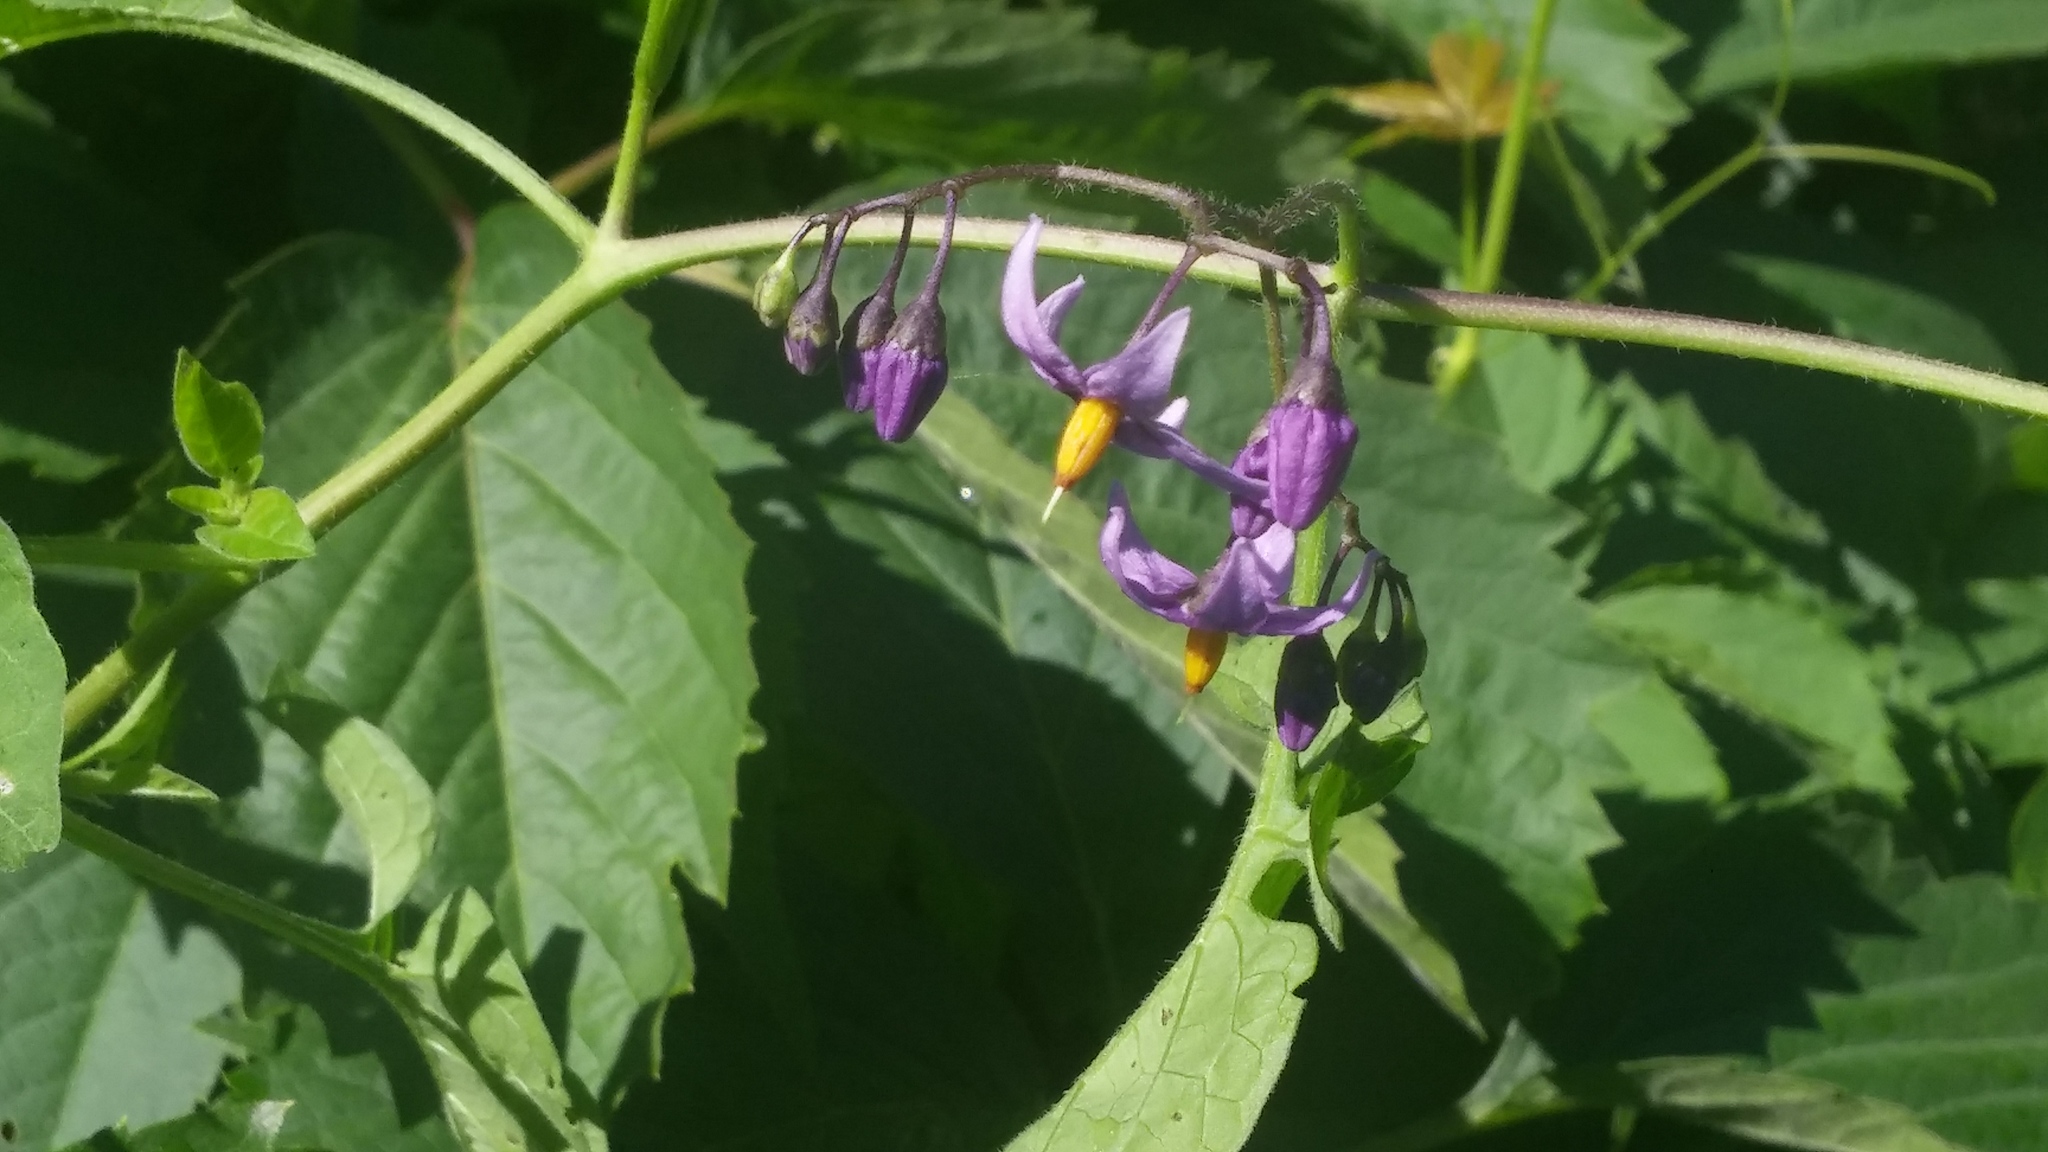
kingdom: Plantae
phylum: Tracheophyta
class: Magnoliopsida
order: Solanales
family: Solanaceae
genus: Solanum
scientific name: Solanum dulcamara
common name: Climbing nightshade
